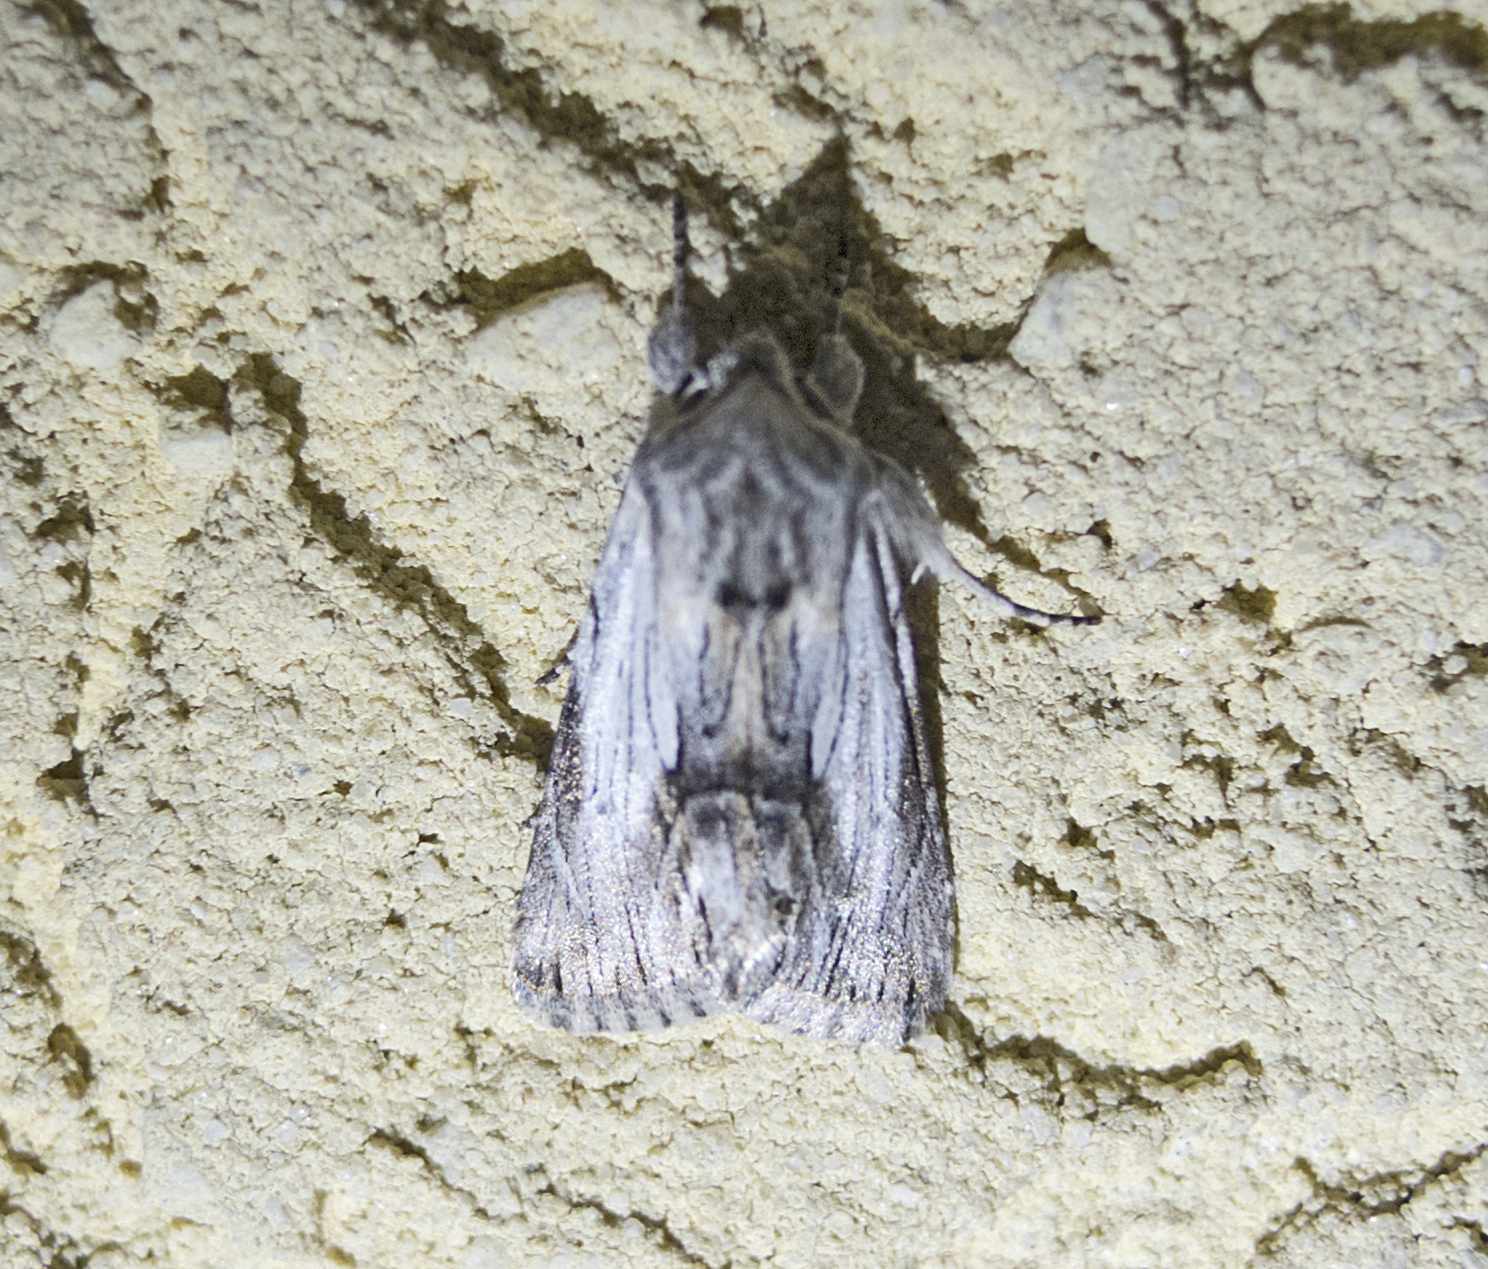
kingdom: Animalia
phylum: Arthropoda
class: Insecta
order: Lepidoptera
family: Noctuidae
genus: Calophasia
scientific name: Calophasia platyptera
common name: Antirrhinum brocade
